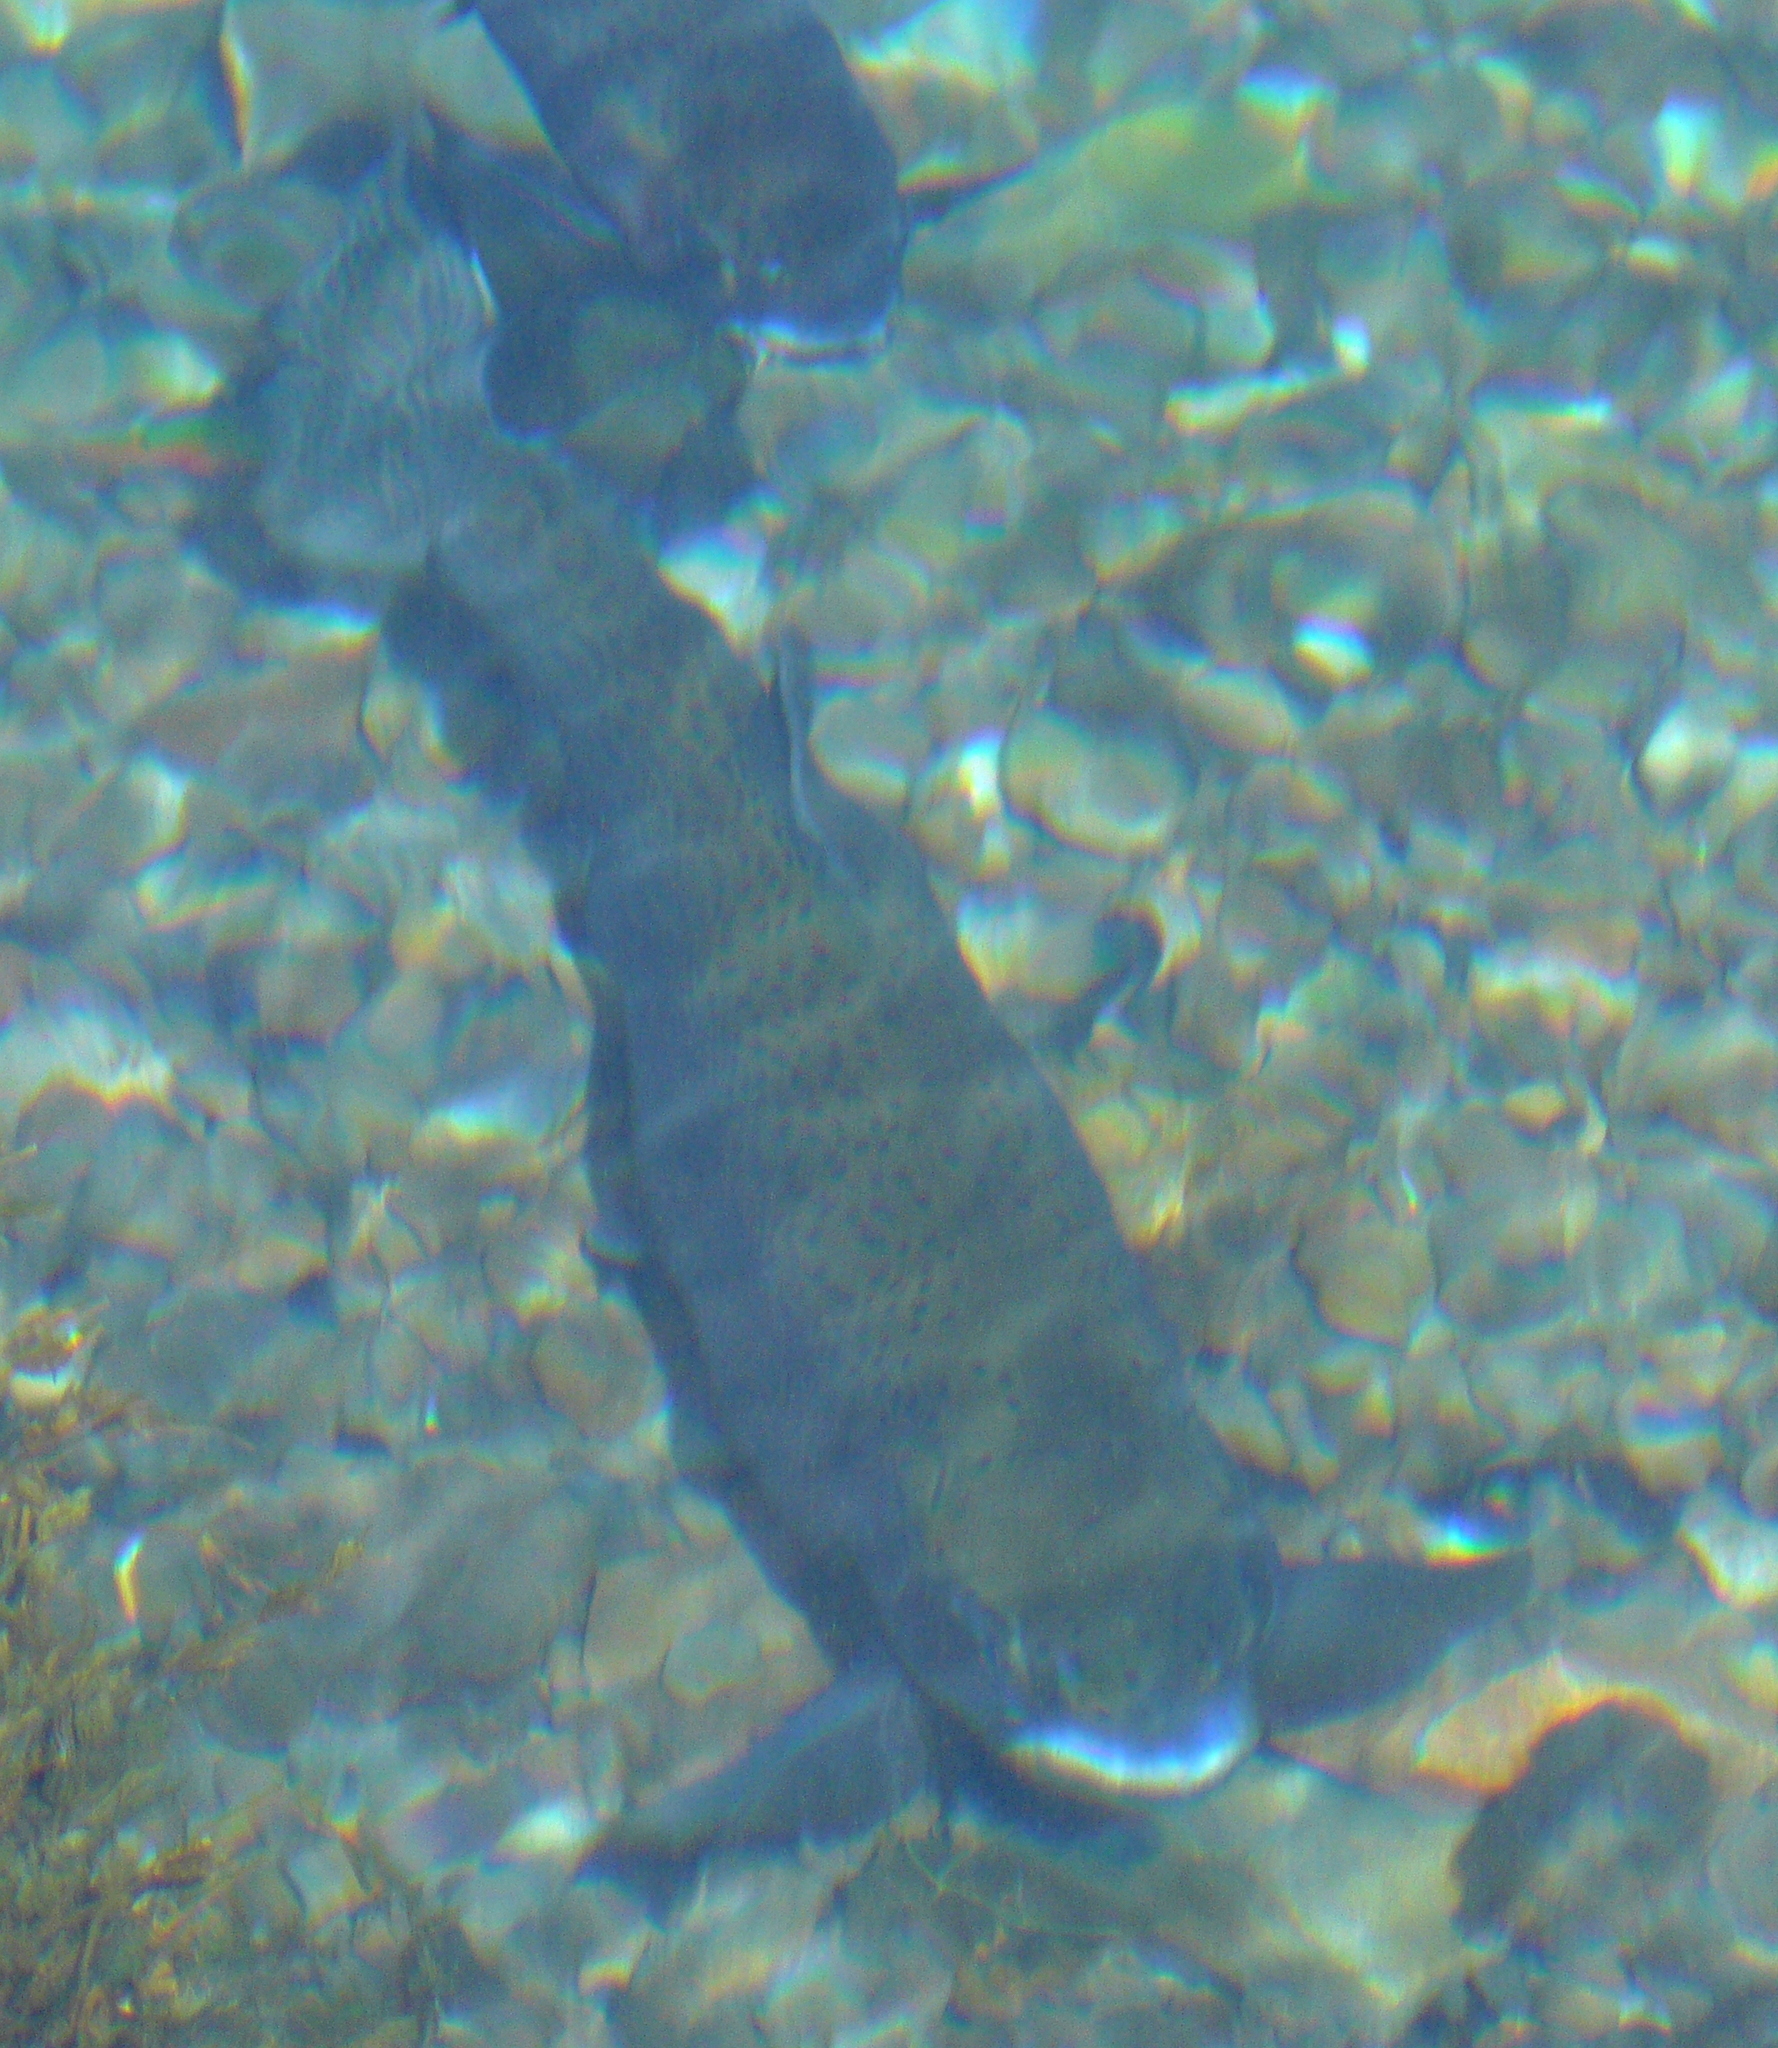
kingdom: Animalia
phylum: Chordata
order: Salmoniformes
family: Salmonidae
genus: Oncorhynchus
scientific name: Oncorhynchus mykiss
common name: Rainbow trout
